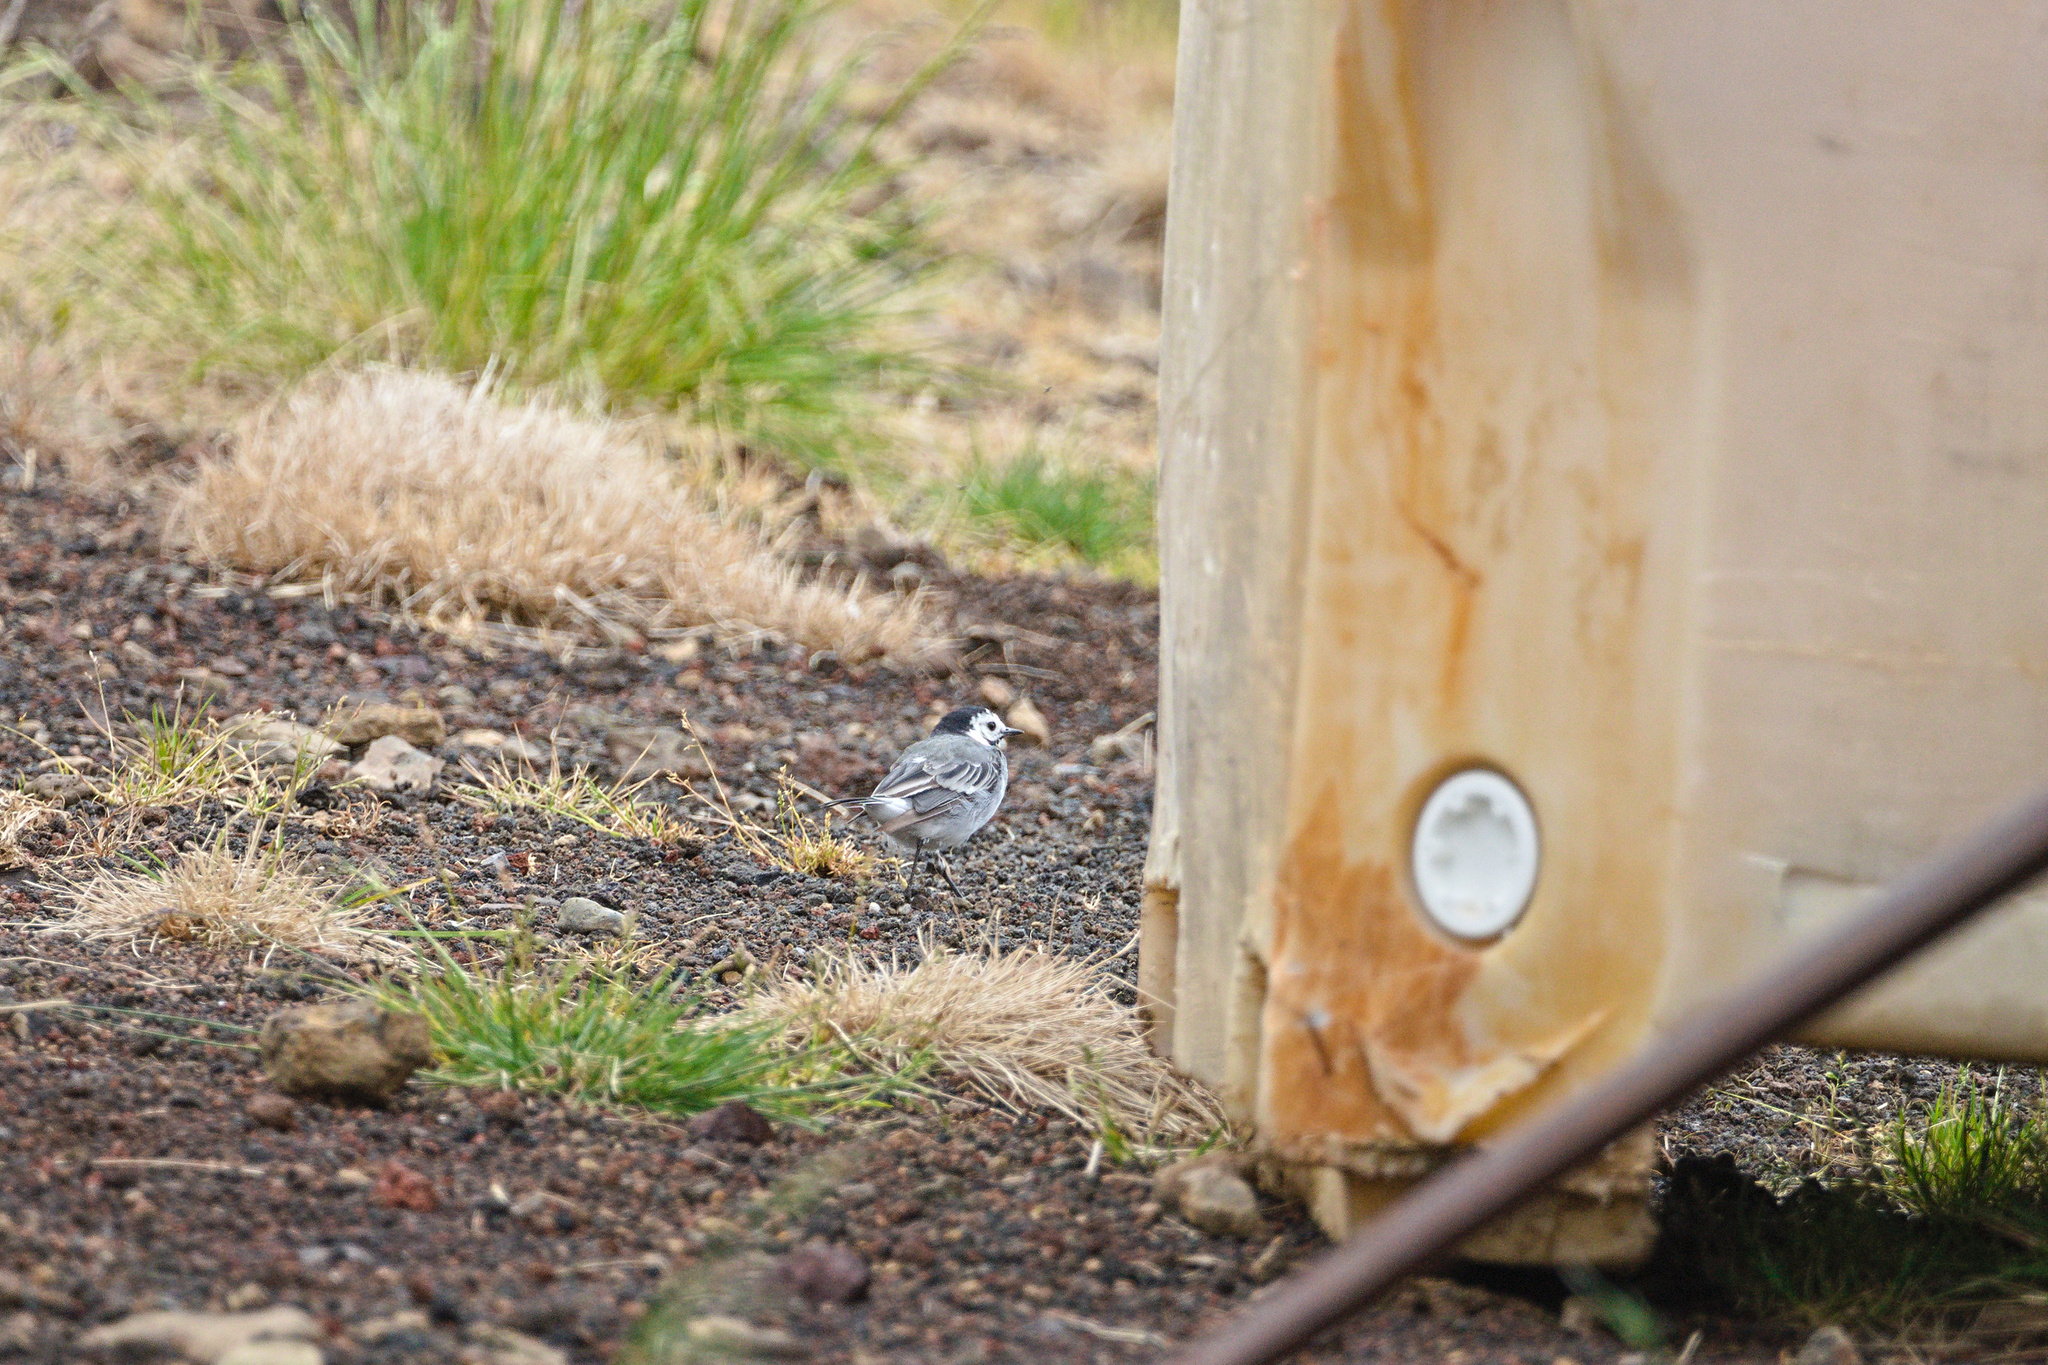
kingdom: Animalia
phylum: Chordata
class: Aves
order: Passeriformes
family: Motacillidae
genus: Motacilla
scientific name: Motacilla alba
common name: White wagtail
